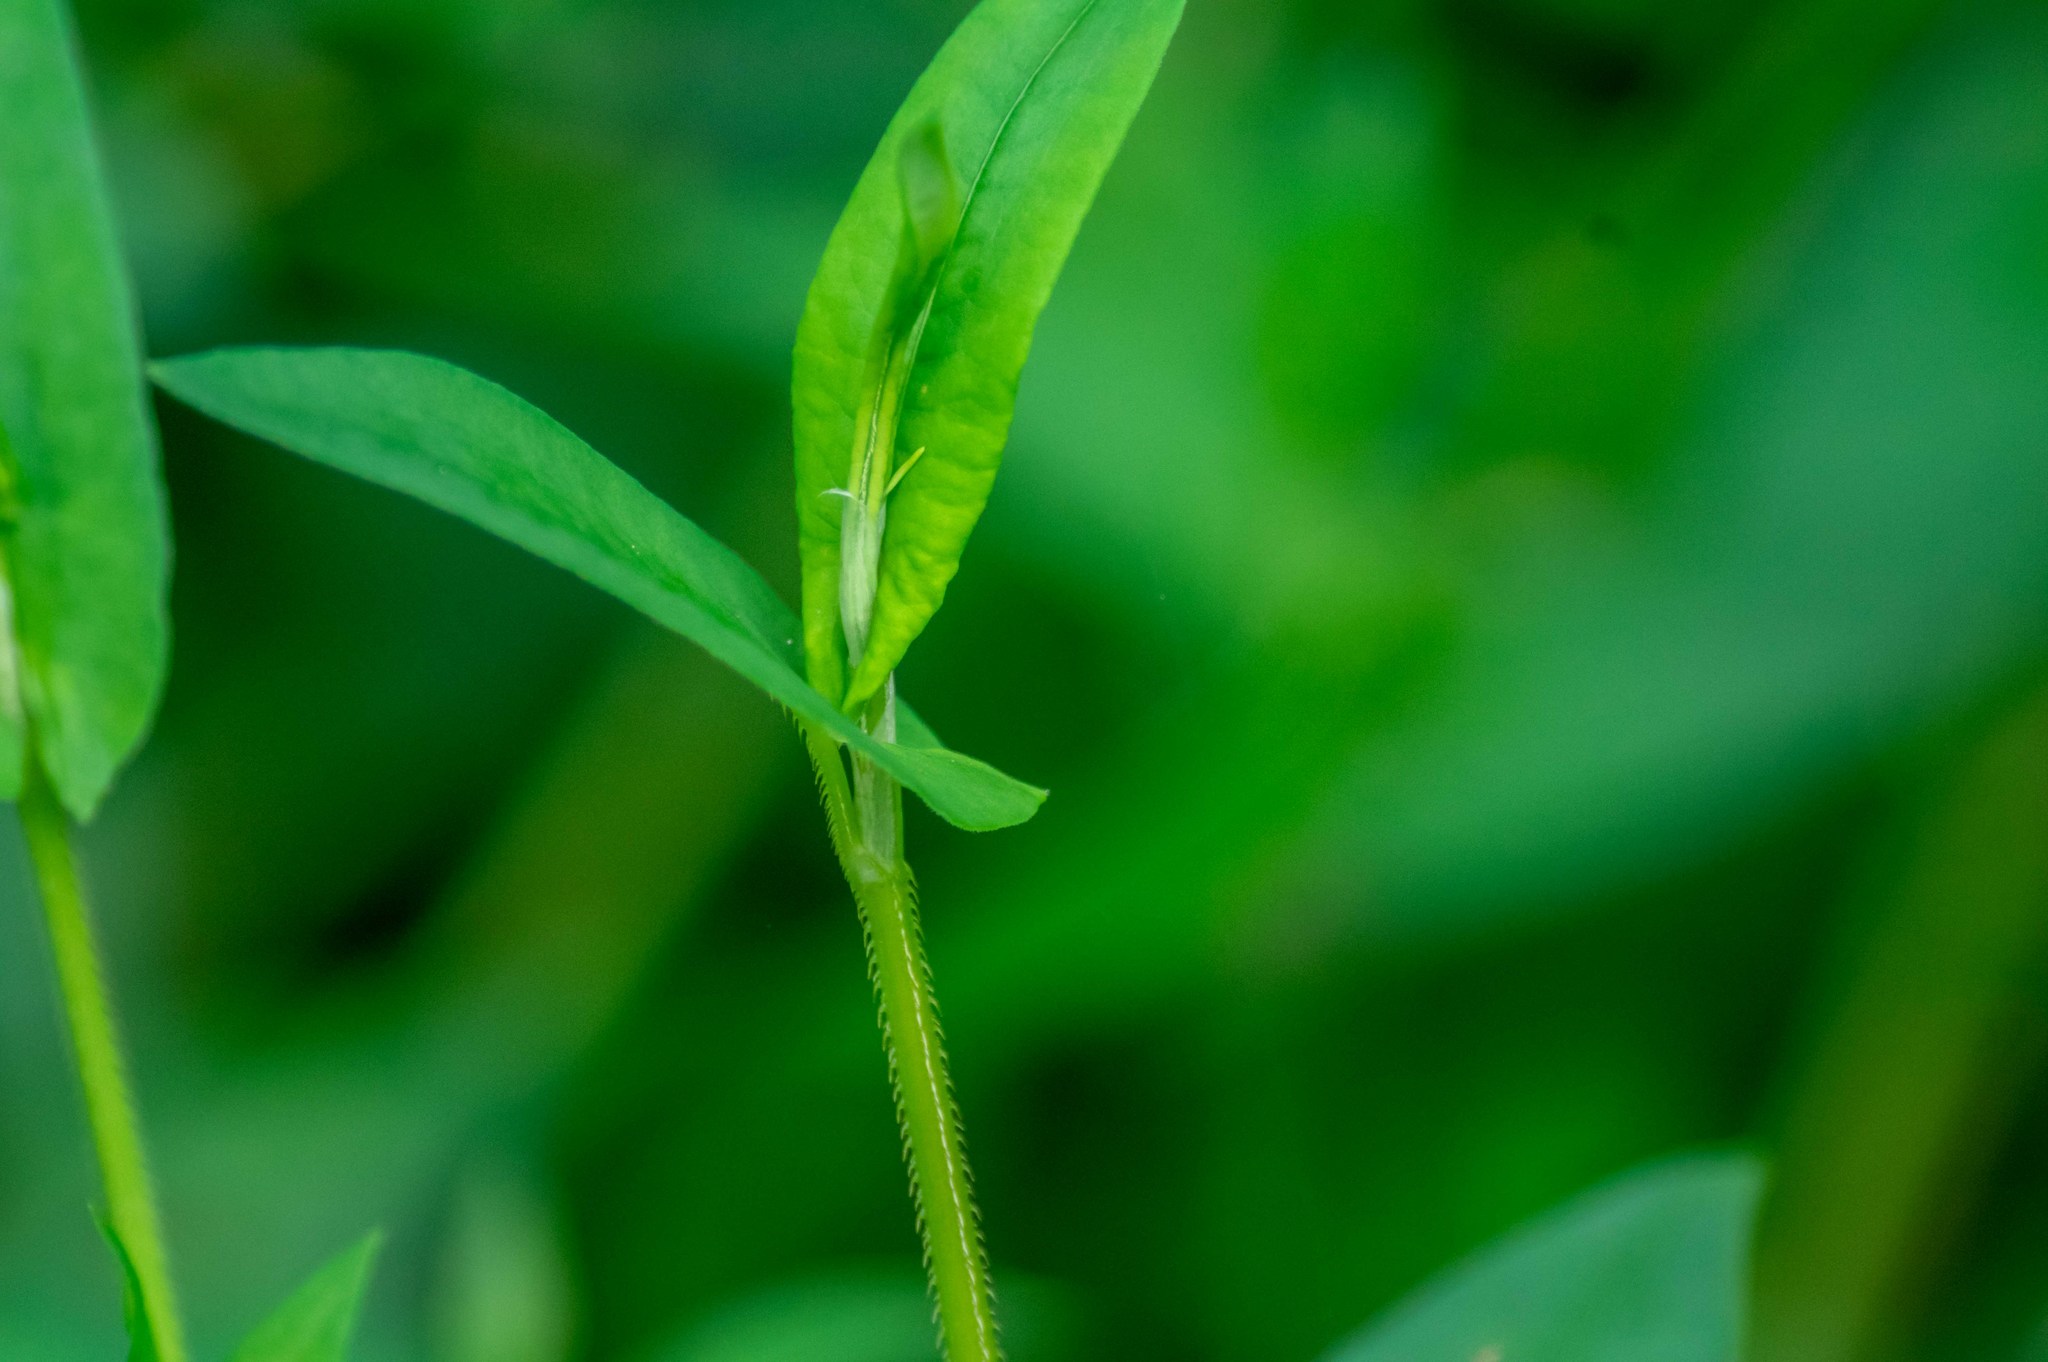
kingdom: Plantae
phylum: Tracheophyta
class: Magnoliopsida
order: Caryophyllales
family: Polygonaceae
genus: Persicaria
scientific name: Persicaria sagittata
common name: American tearthumb
